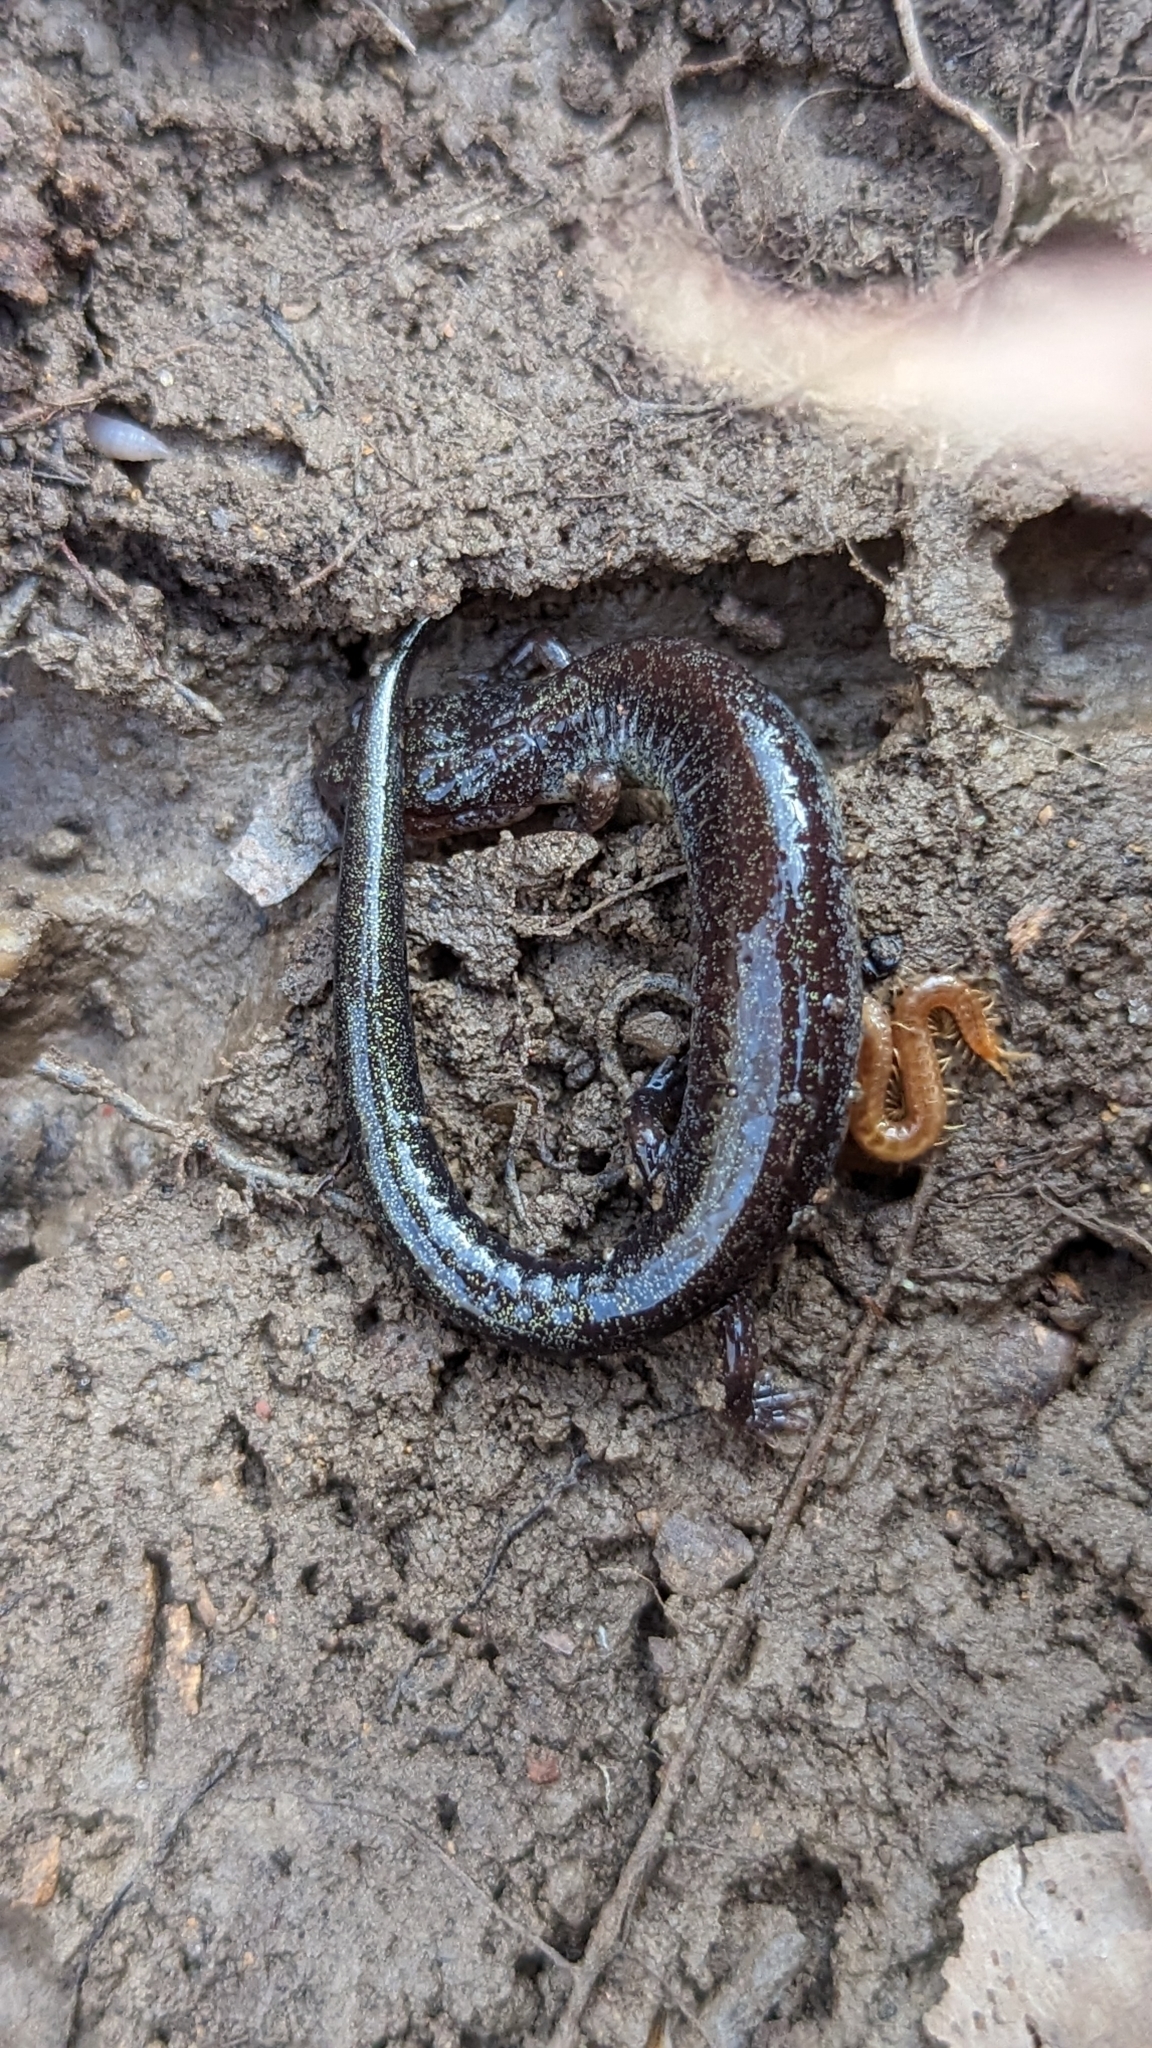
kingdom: Animalia
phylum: Chordata
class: Amphibia
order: Caudata
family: Plethodontidae
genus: Plethodon
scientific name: Plethodon cinereus
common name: Redback salamander
